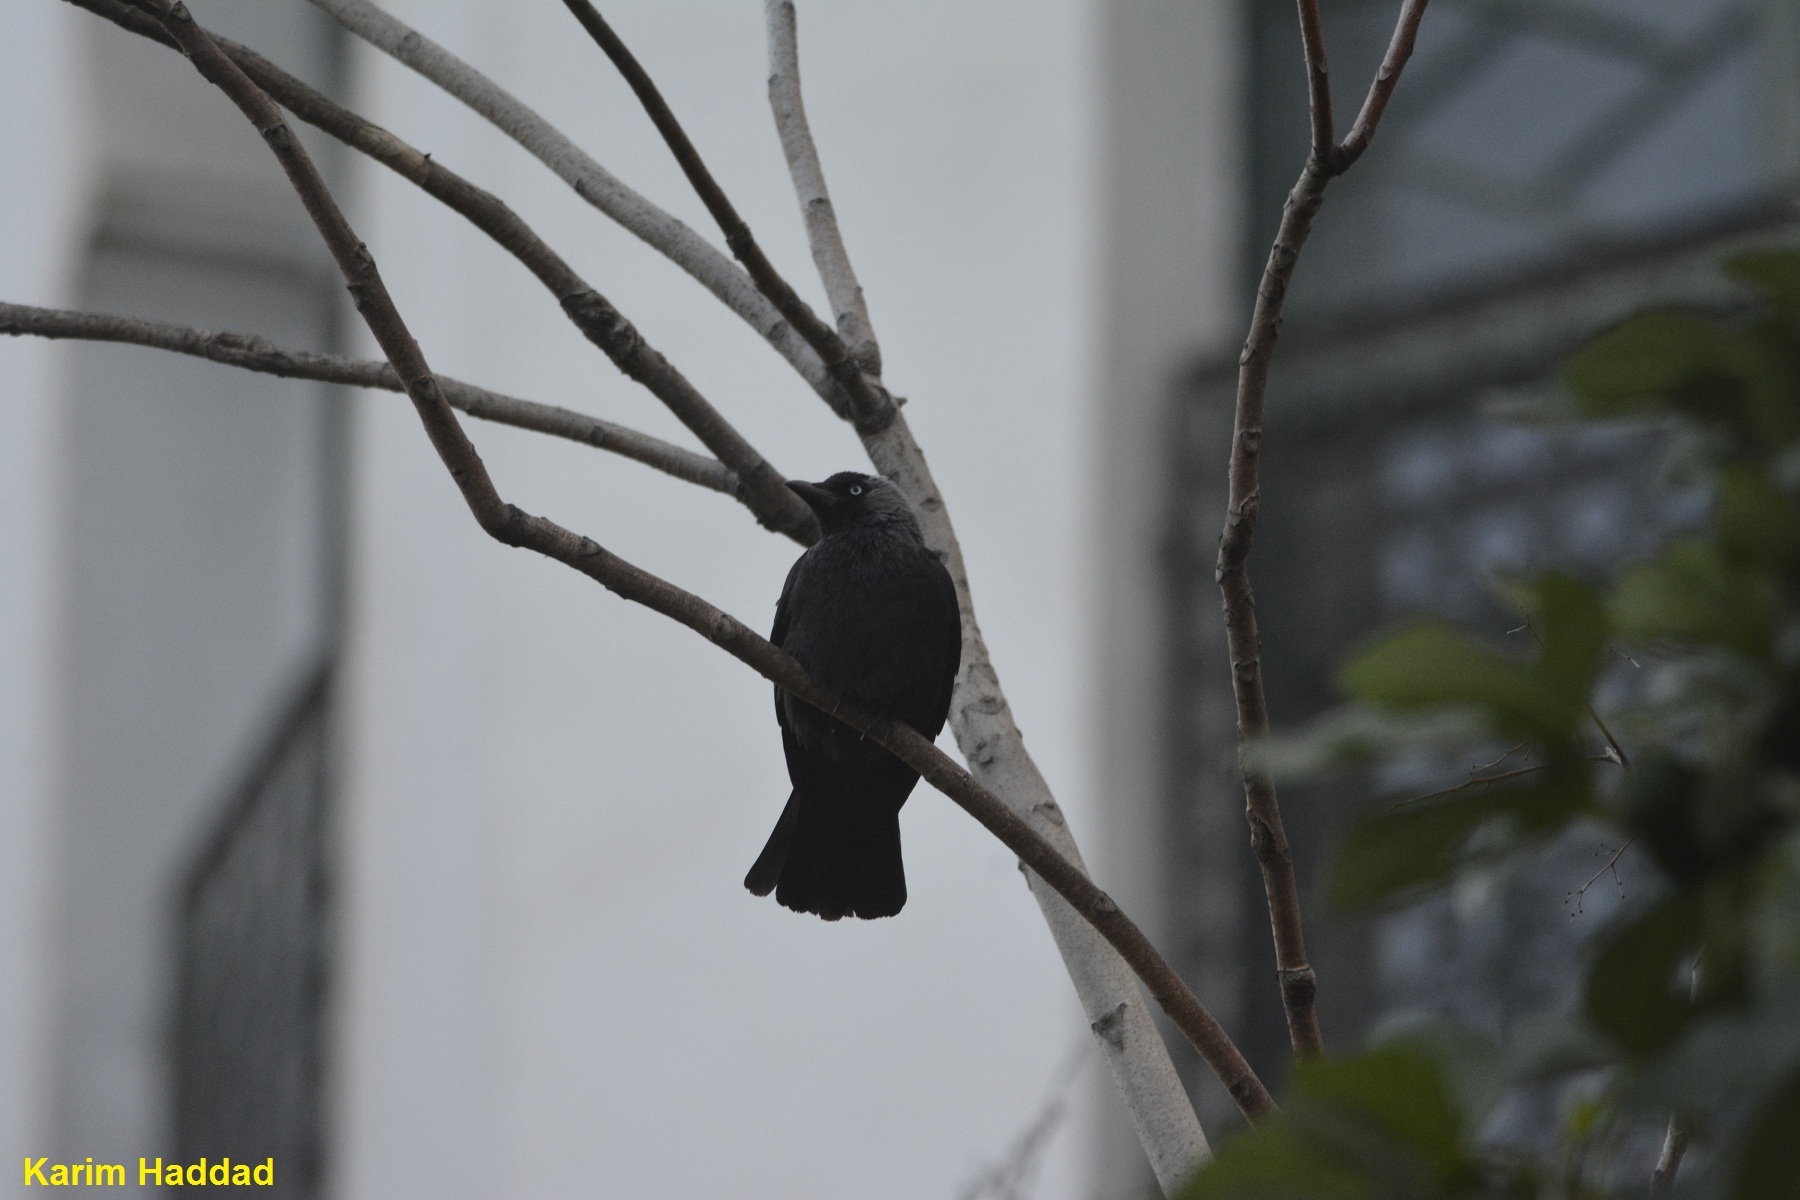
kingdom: Animalia
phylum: Chordata
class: Aves
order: Passeriformes
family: Corvidae
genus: Coloeus
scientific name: Coloeus monedula
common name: Western jackdaw
